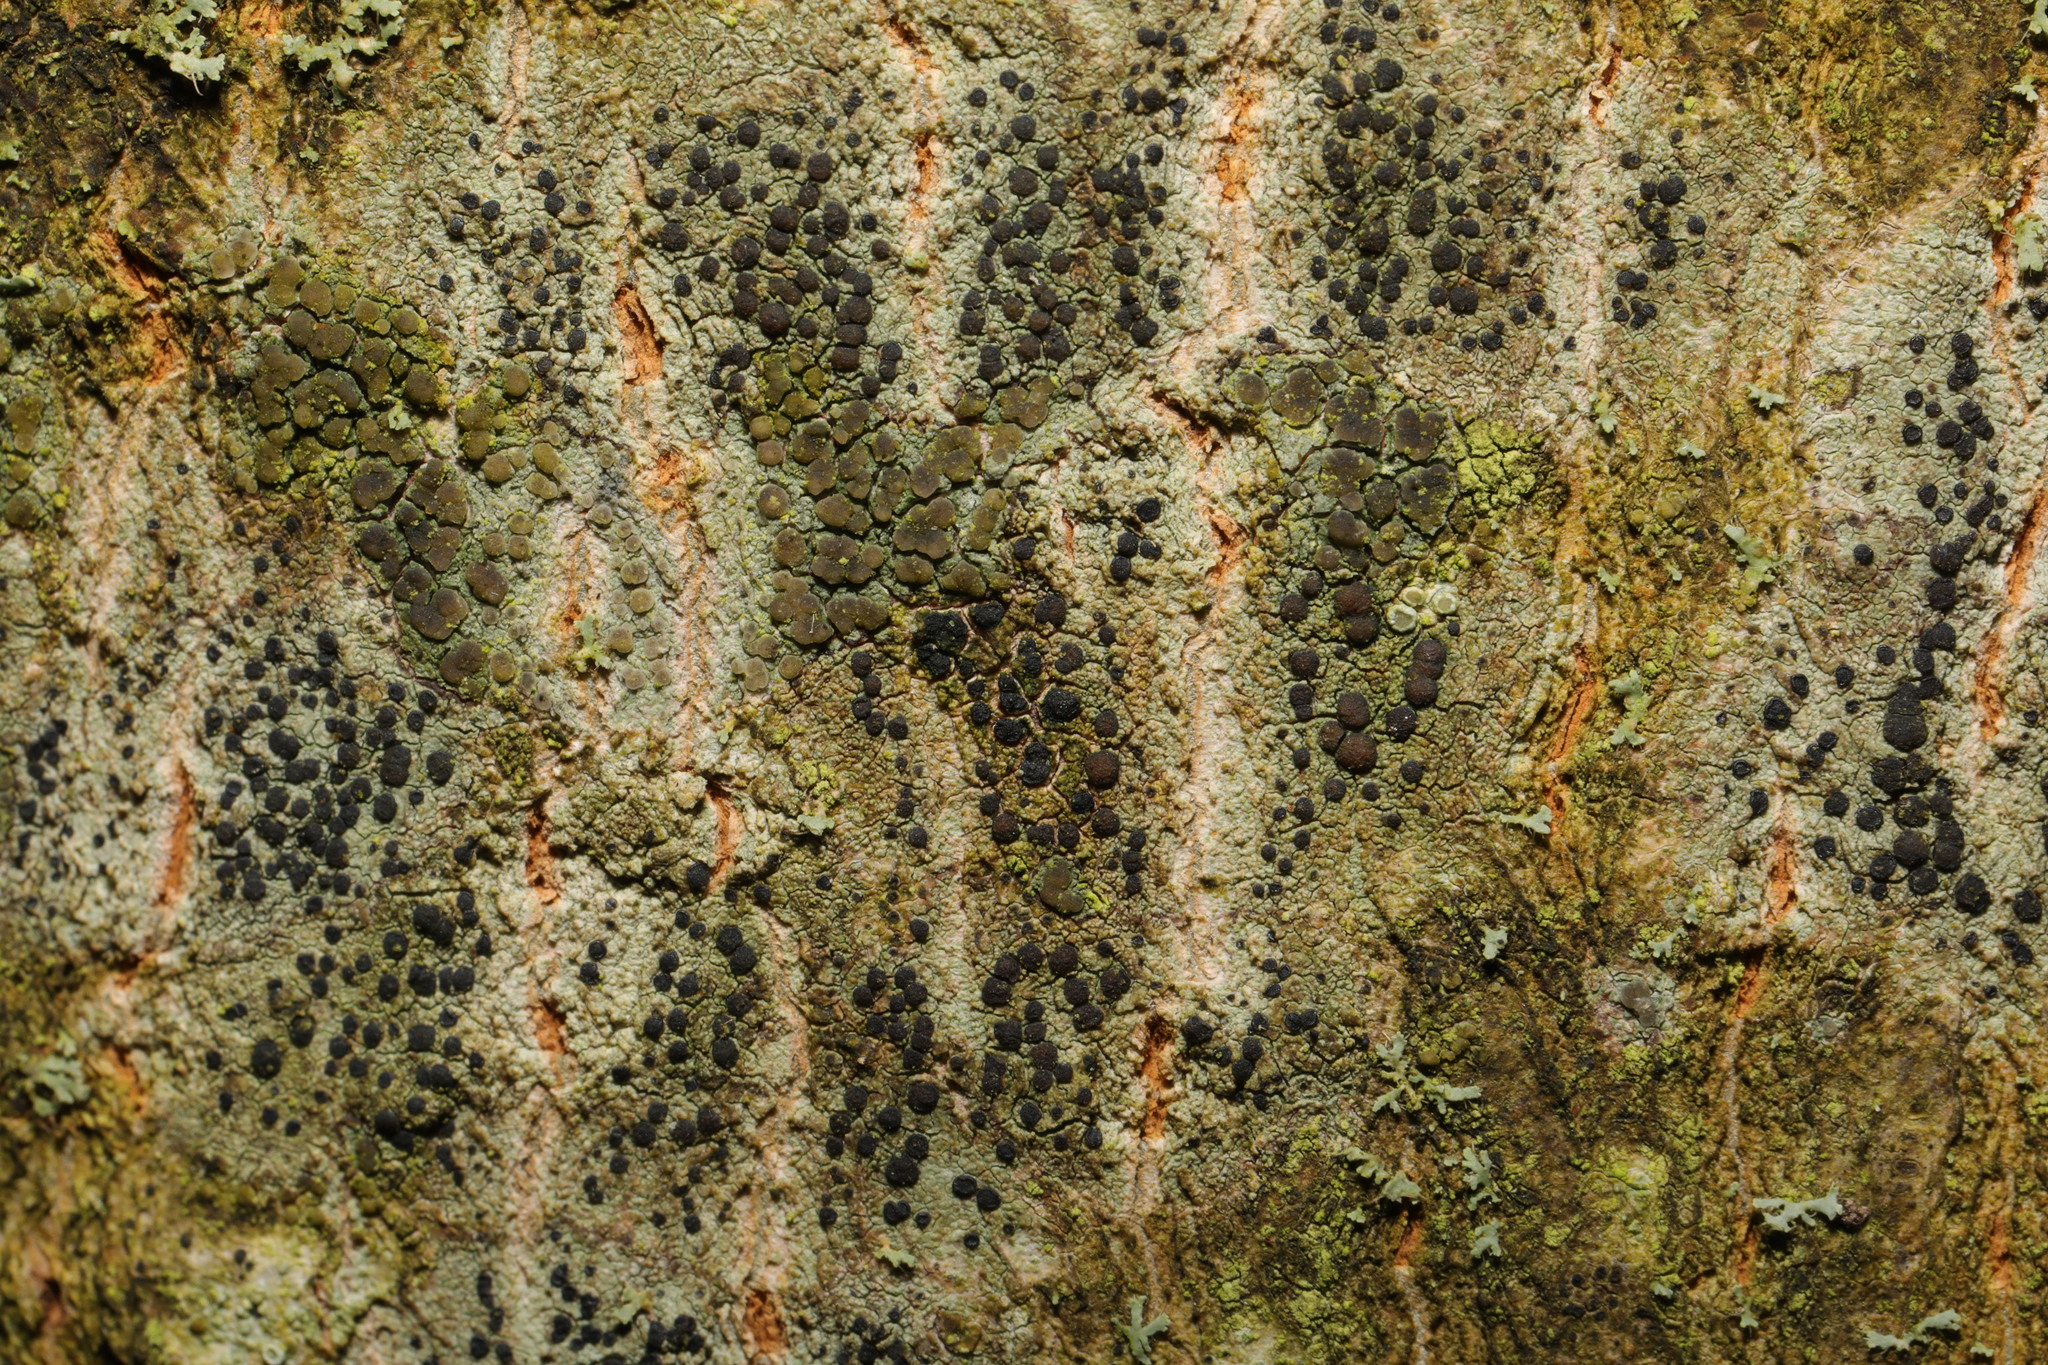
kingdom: Fungi
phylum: Ascomycota
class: Lecanoromycetes
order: Lecanorales
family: Lecanoraceae
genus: Lecidella
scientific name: Lecidella elaeochroma
